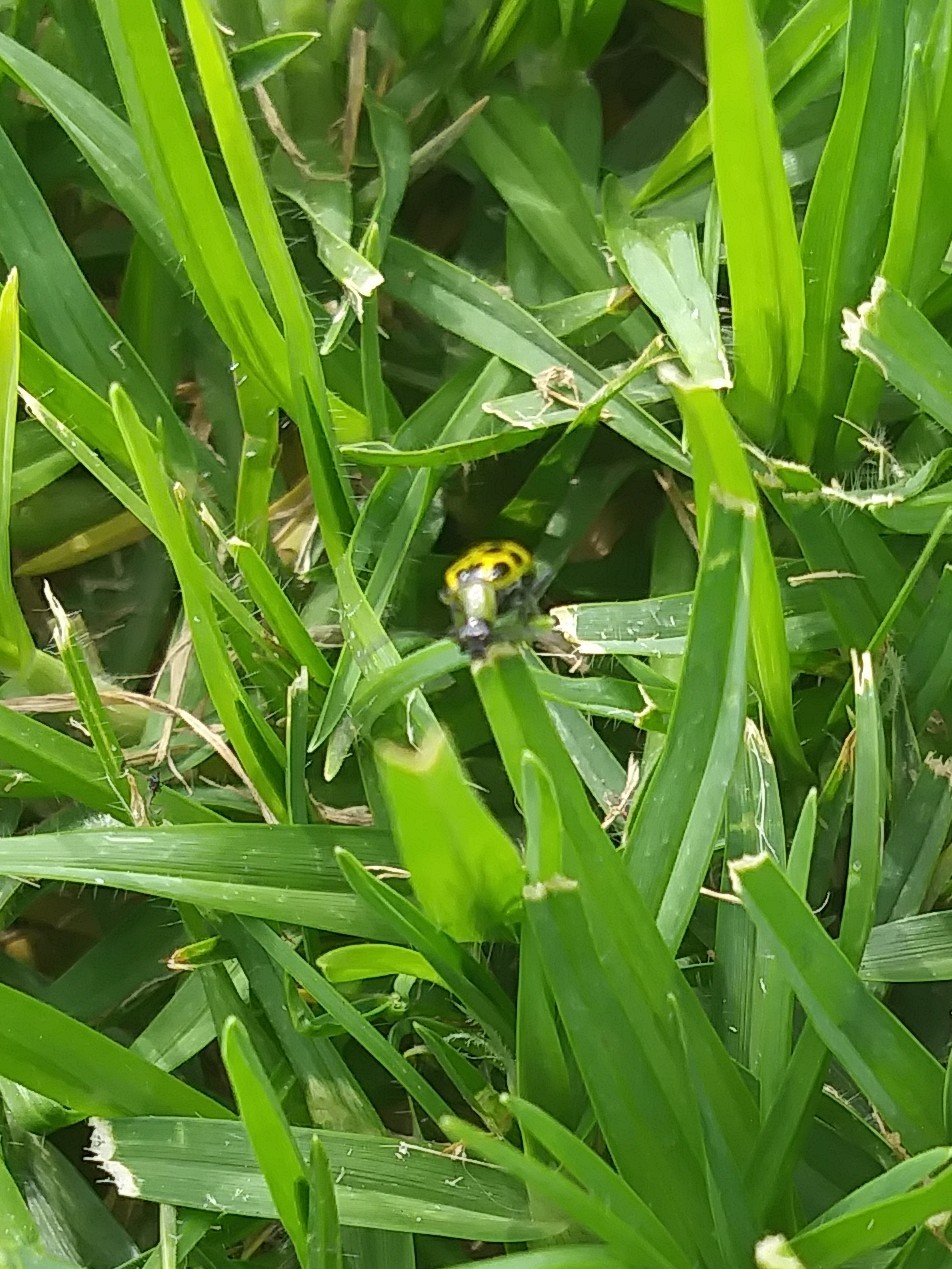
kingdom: Animalia
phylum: Arthropoda
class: Insecta
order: Coleoptera
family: Chrysomelidae
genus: Diabrotica
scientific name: Diabrotica undecimpunctata
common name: Spotted cucumber beetle
